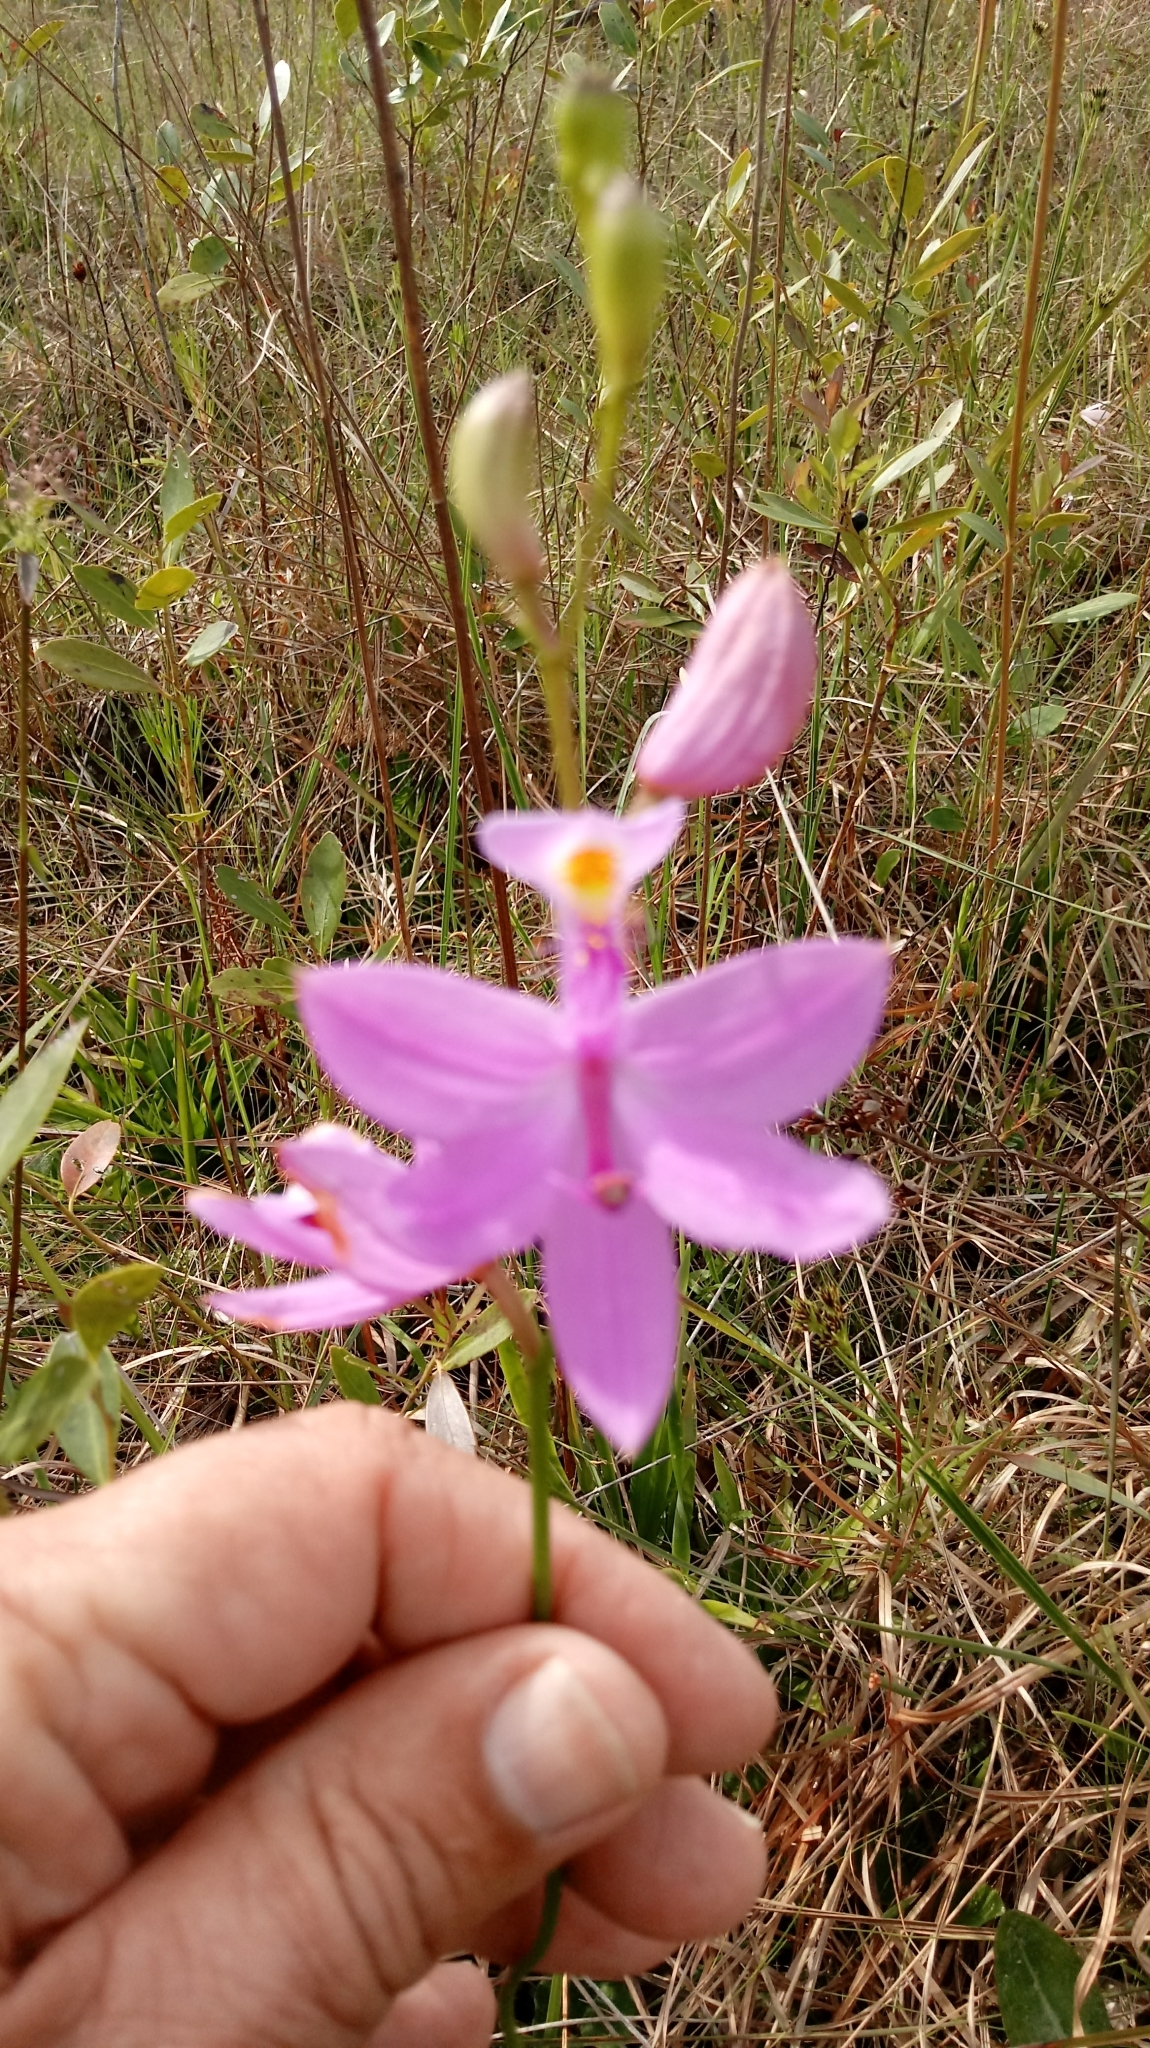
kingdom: Plantae
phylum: Tracheophyta
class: Liliopsida
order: Asparagales
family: Orchidaceae
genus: Calopogon
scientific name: Calopogon tuberosus
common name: Grass-pink
